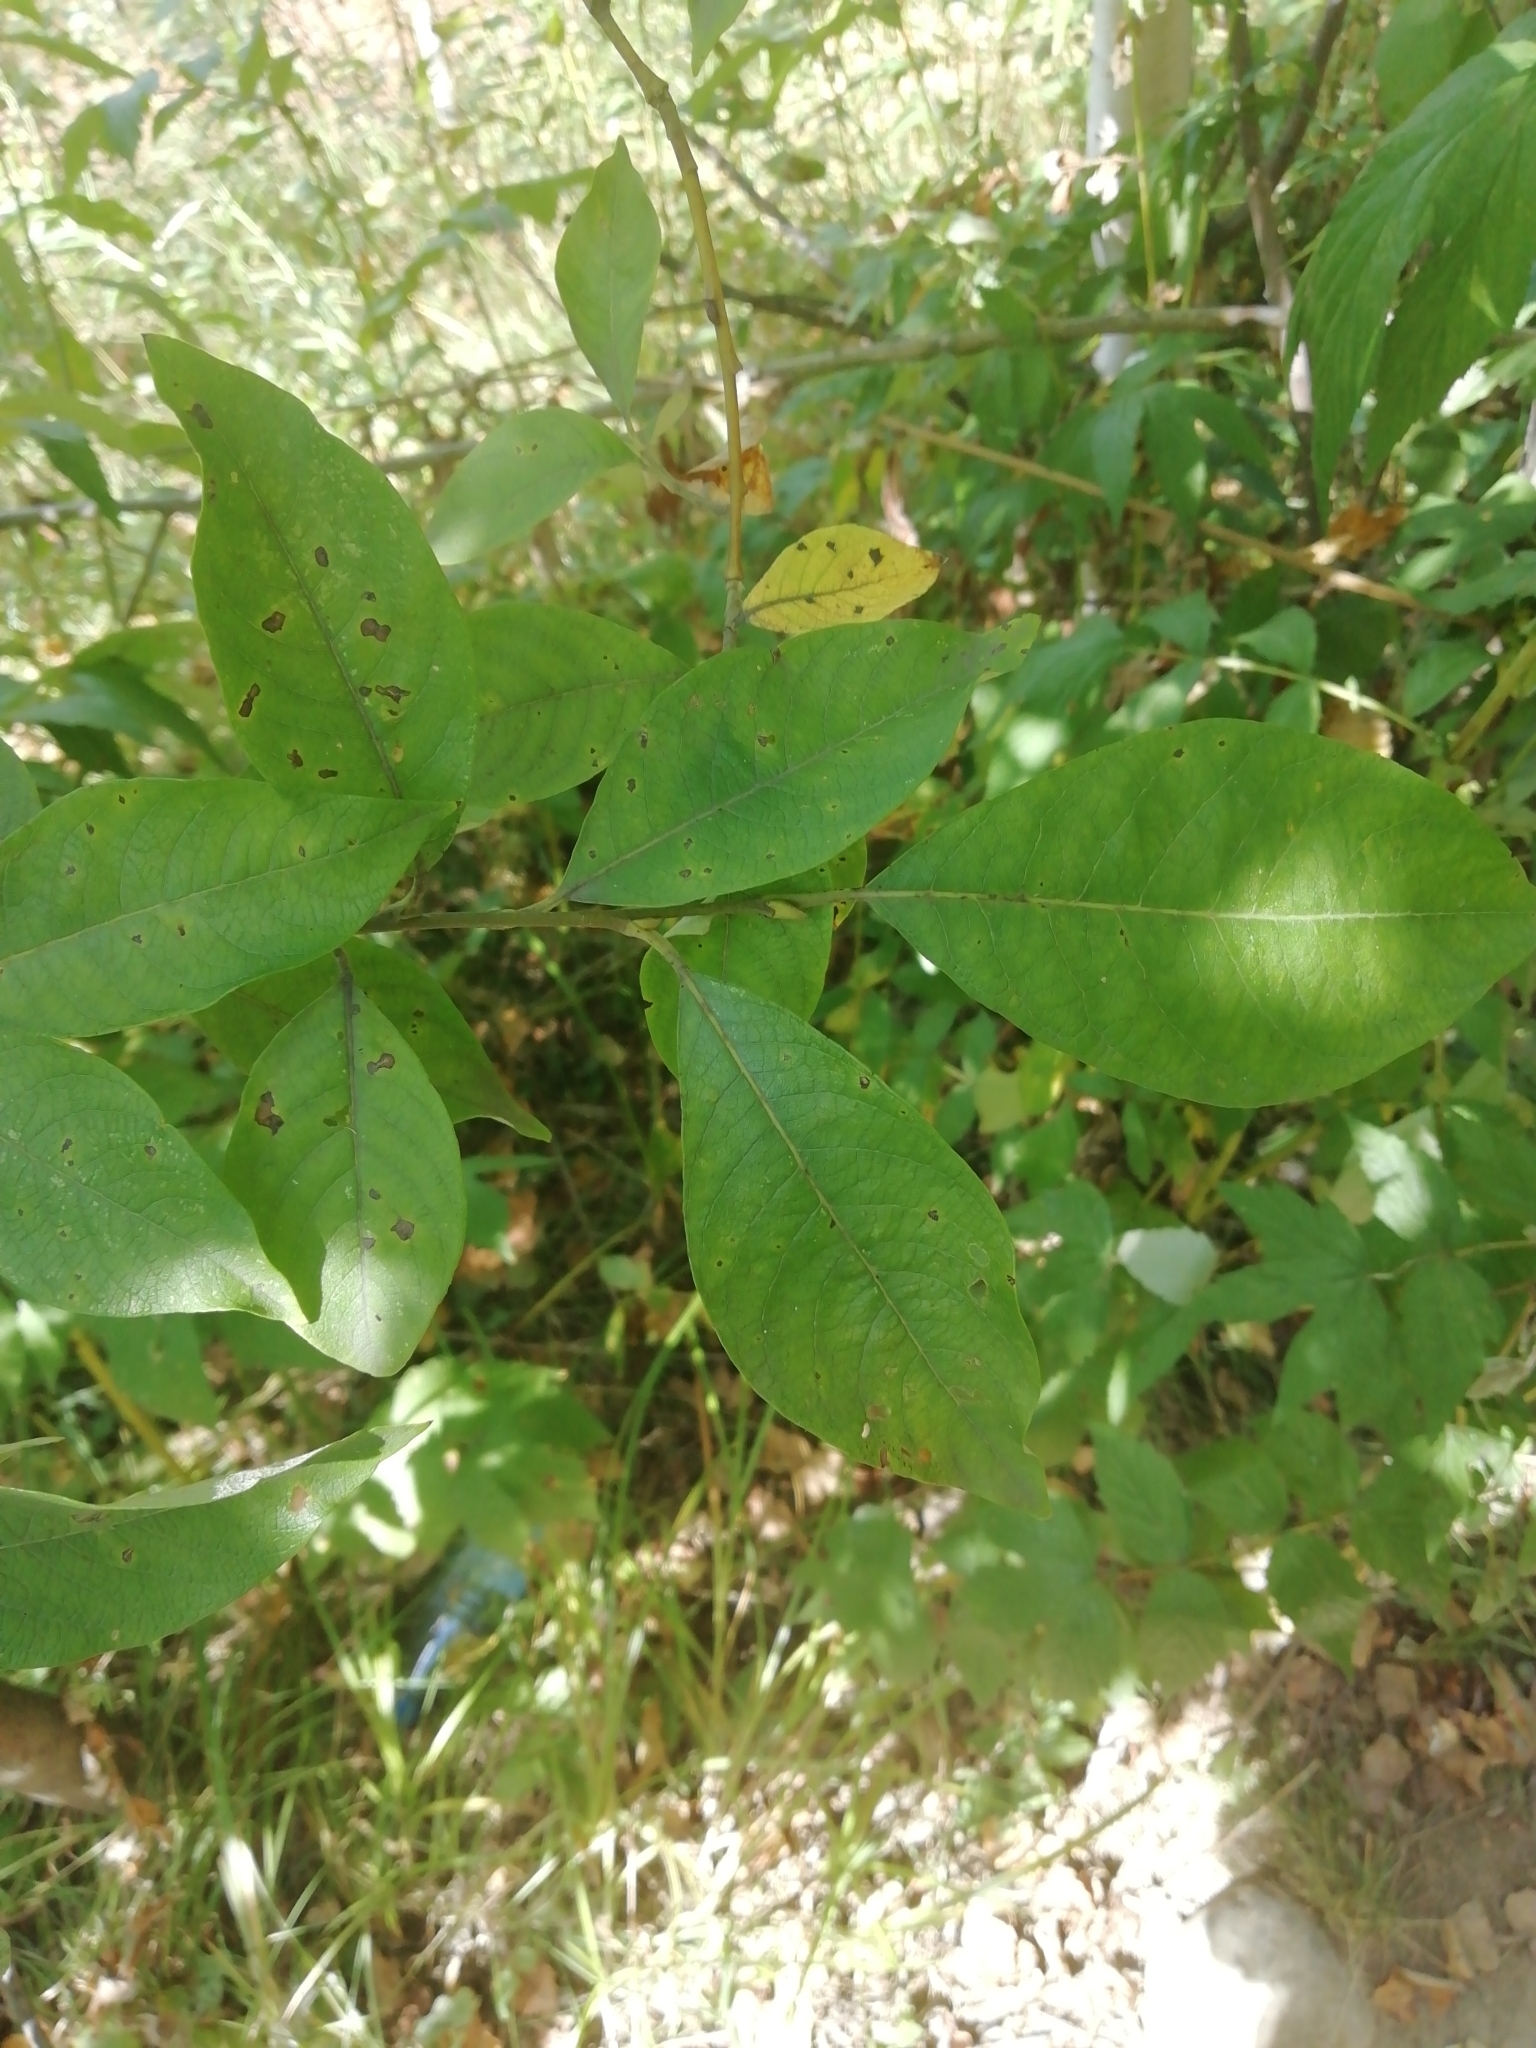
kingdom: Plantae
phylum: Tracheophyta
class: Magnoliopsida
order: Malpighiales
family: Salicaceae
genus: Salix
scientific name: Salix caprea
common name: Goat willow
